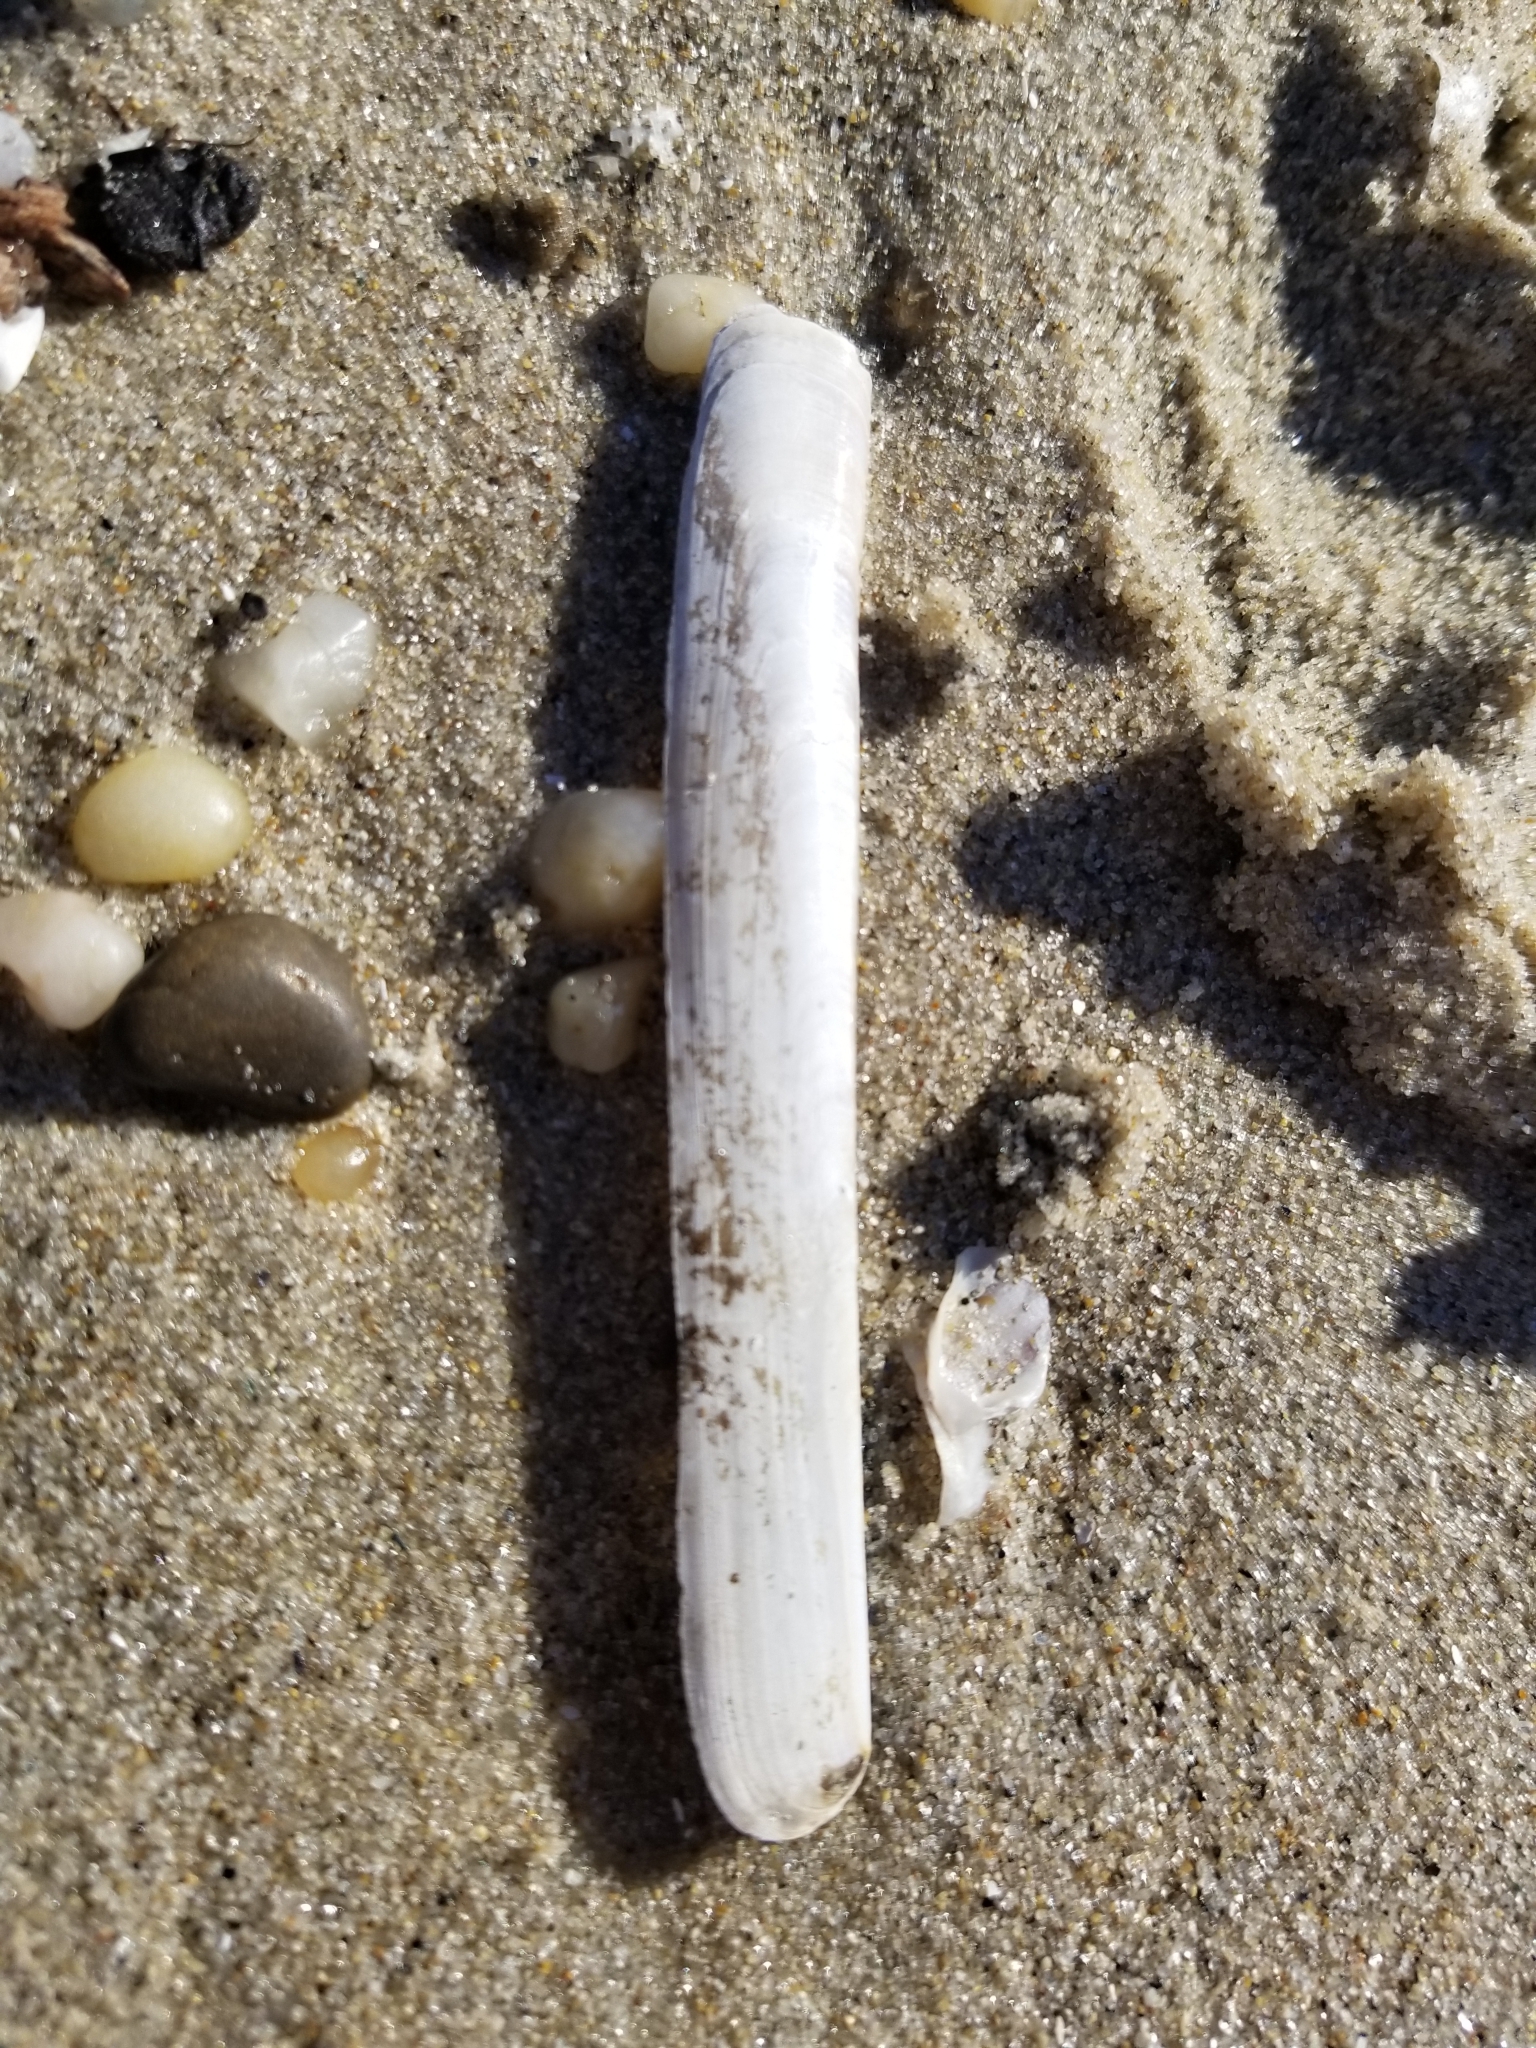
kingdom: Animalia
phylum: Mollusca
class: Bivalvia
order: Adapedonta
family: Pharidae
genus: Ensis
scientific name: Ensis leei
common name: American jack knife clam
